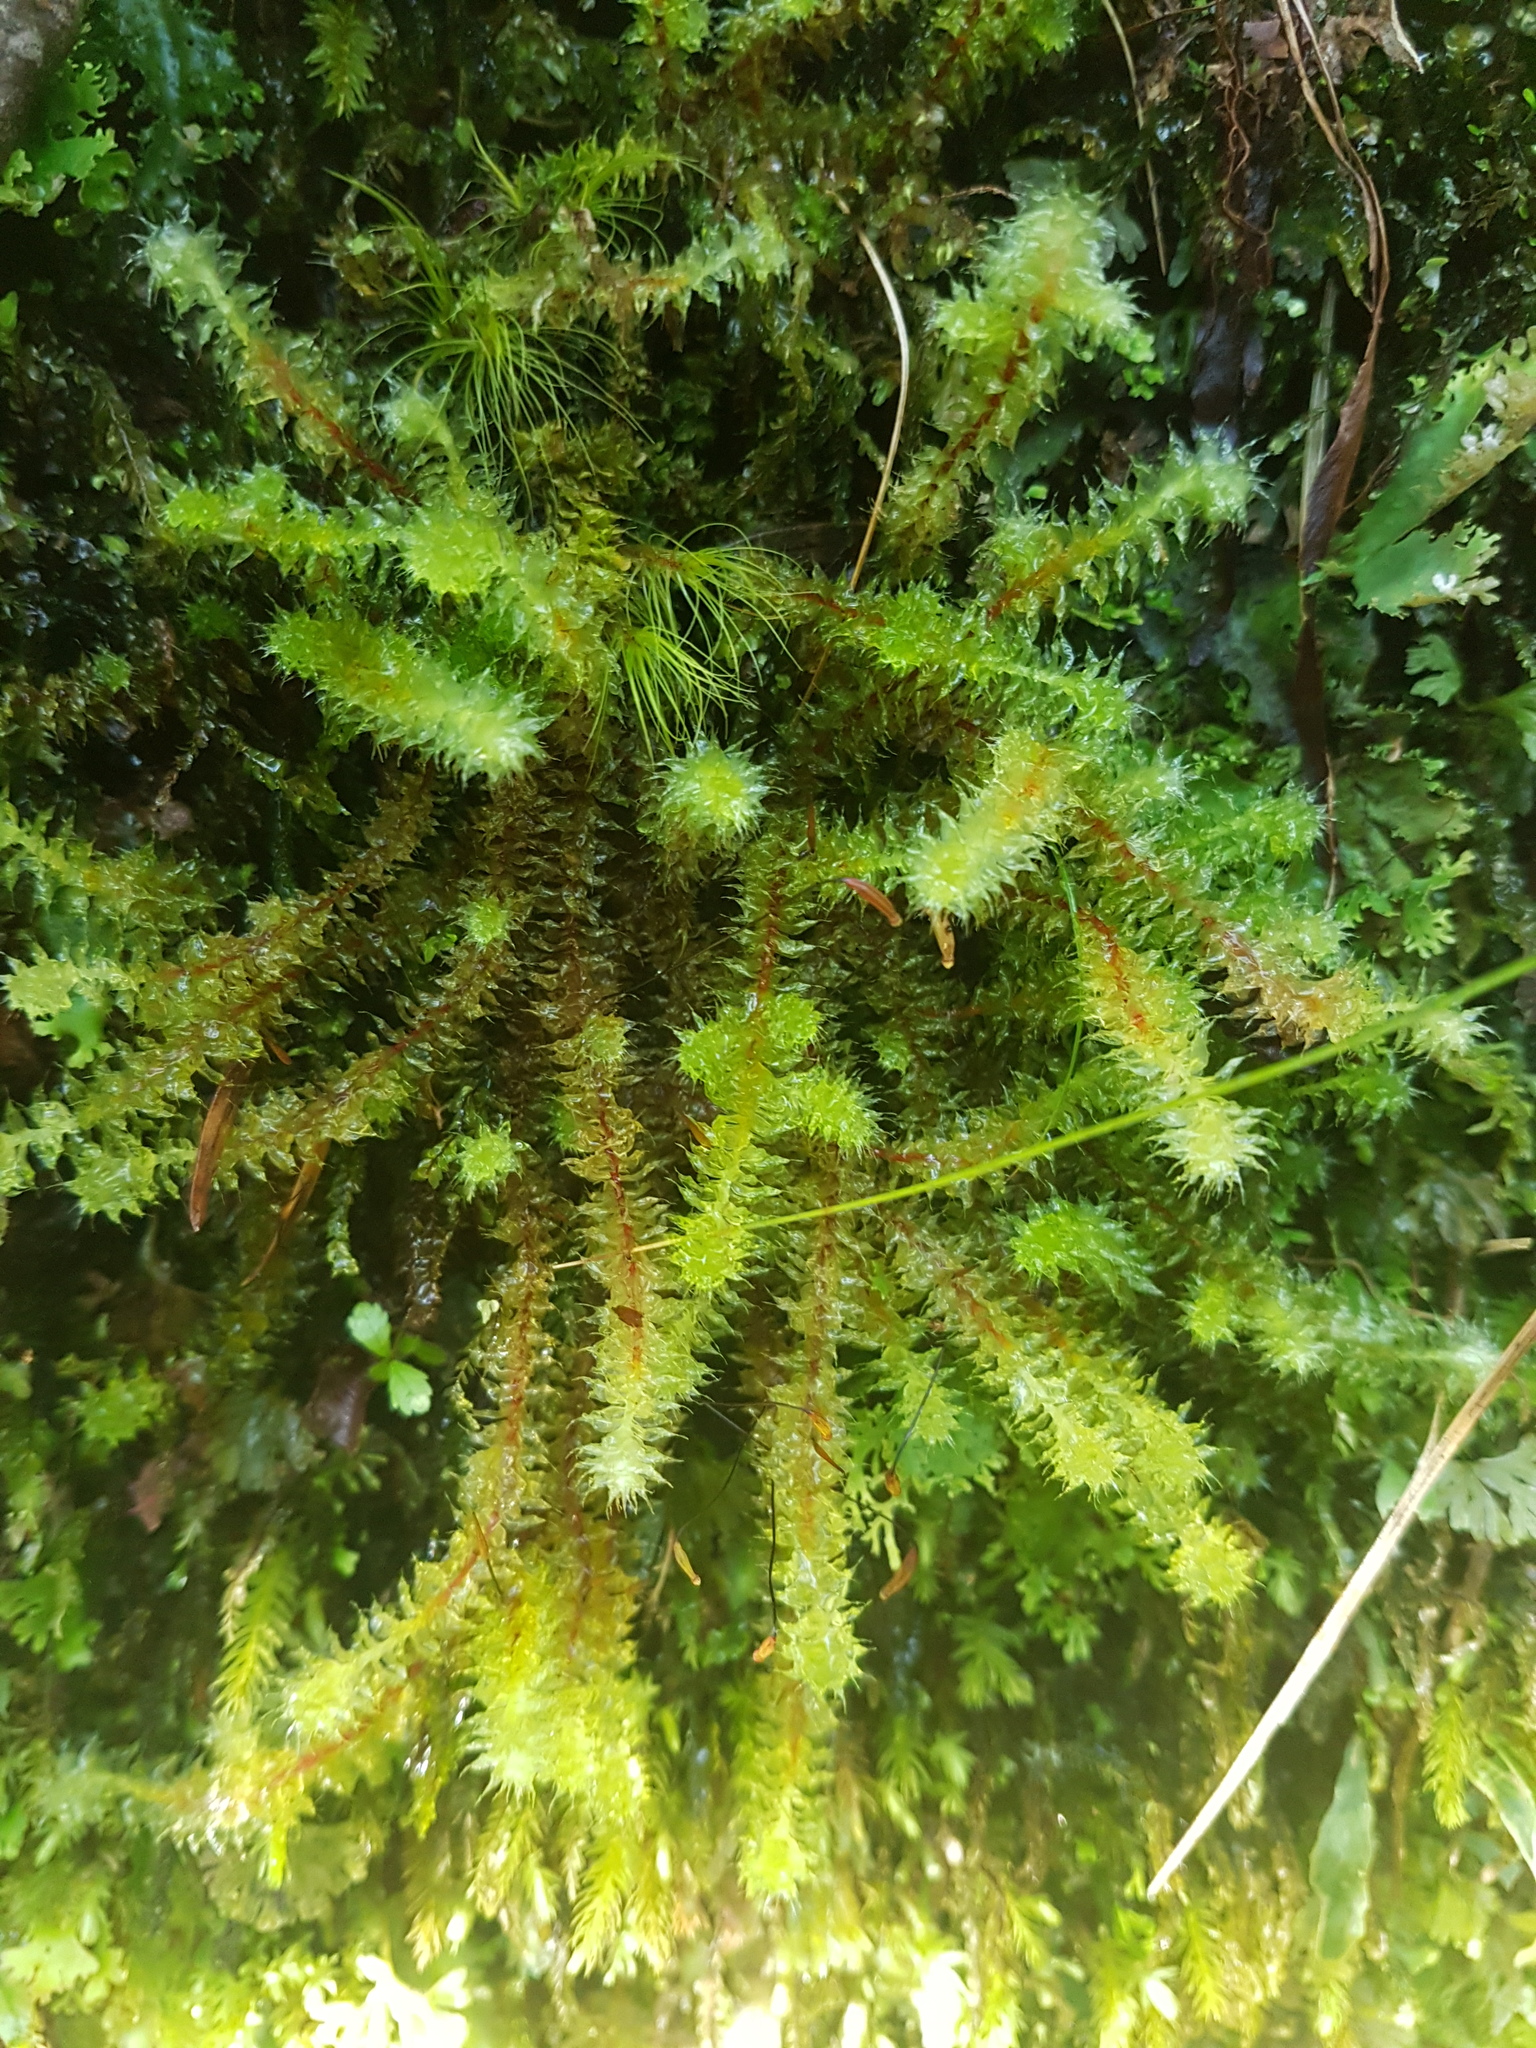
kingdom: Plantae
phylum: Bryophyta
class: Bryopsida
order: Ptychomniales
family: Ptychomniaceae
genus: Ptychomnion
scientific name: Ptychomnion aciculare
